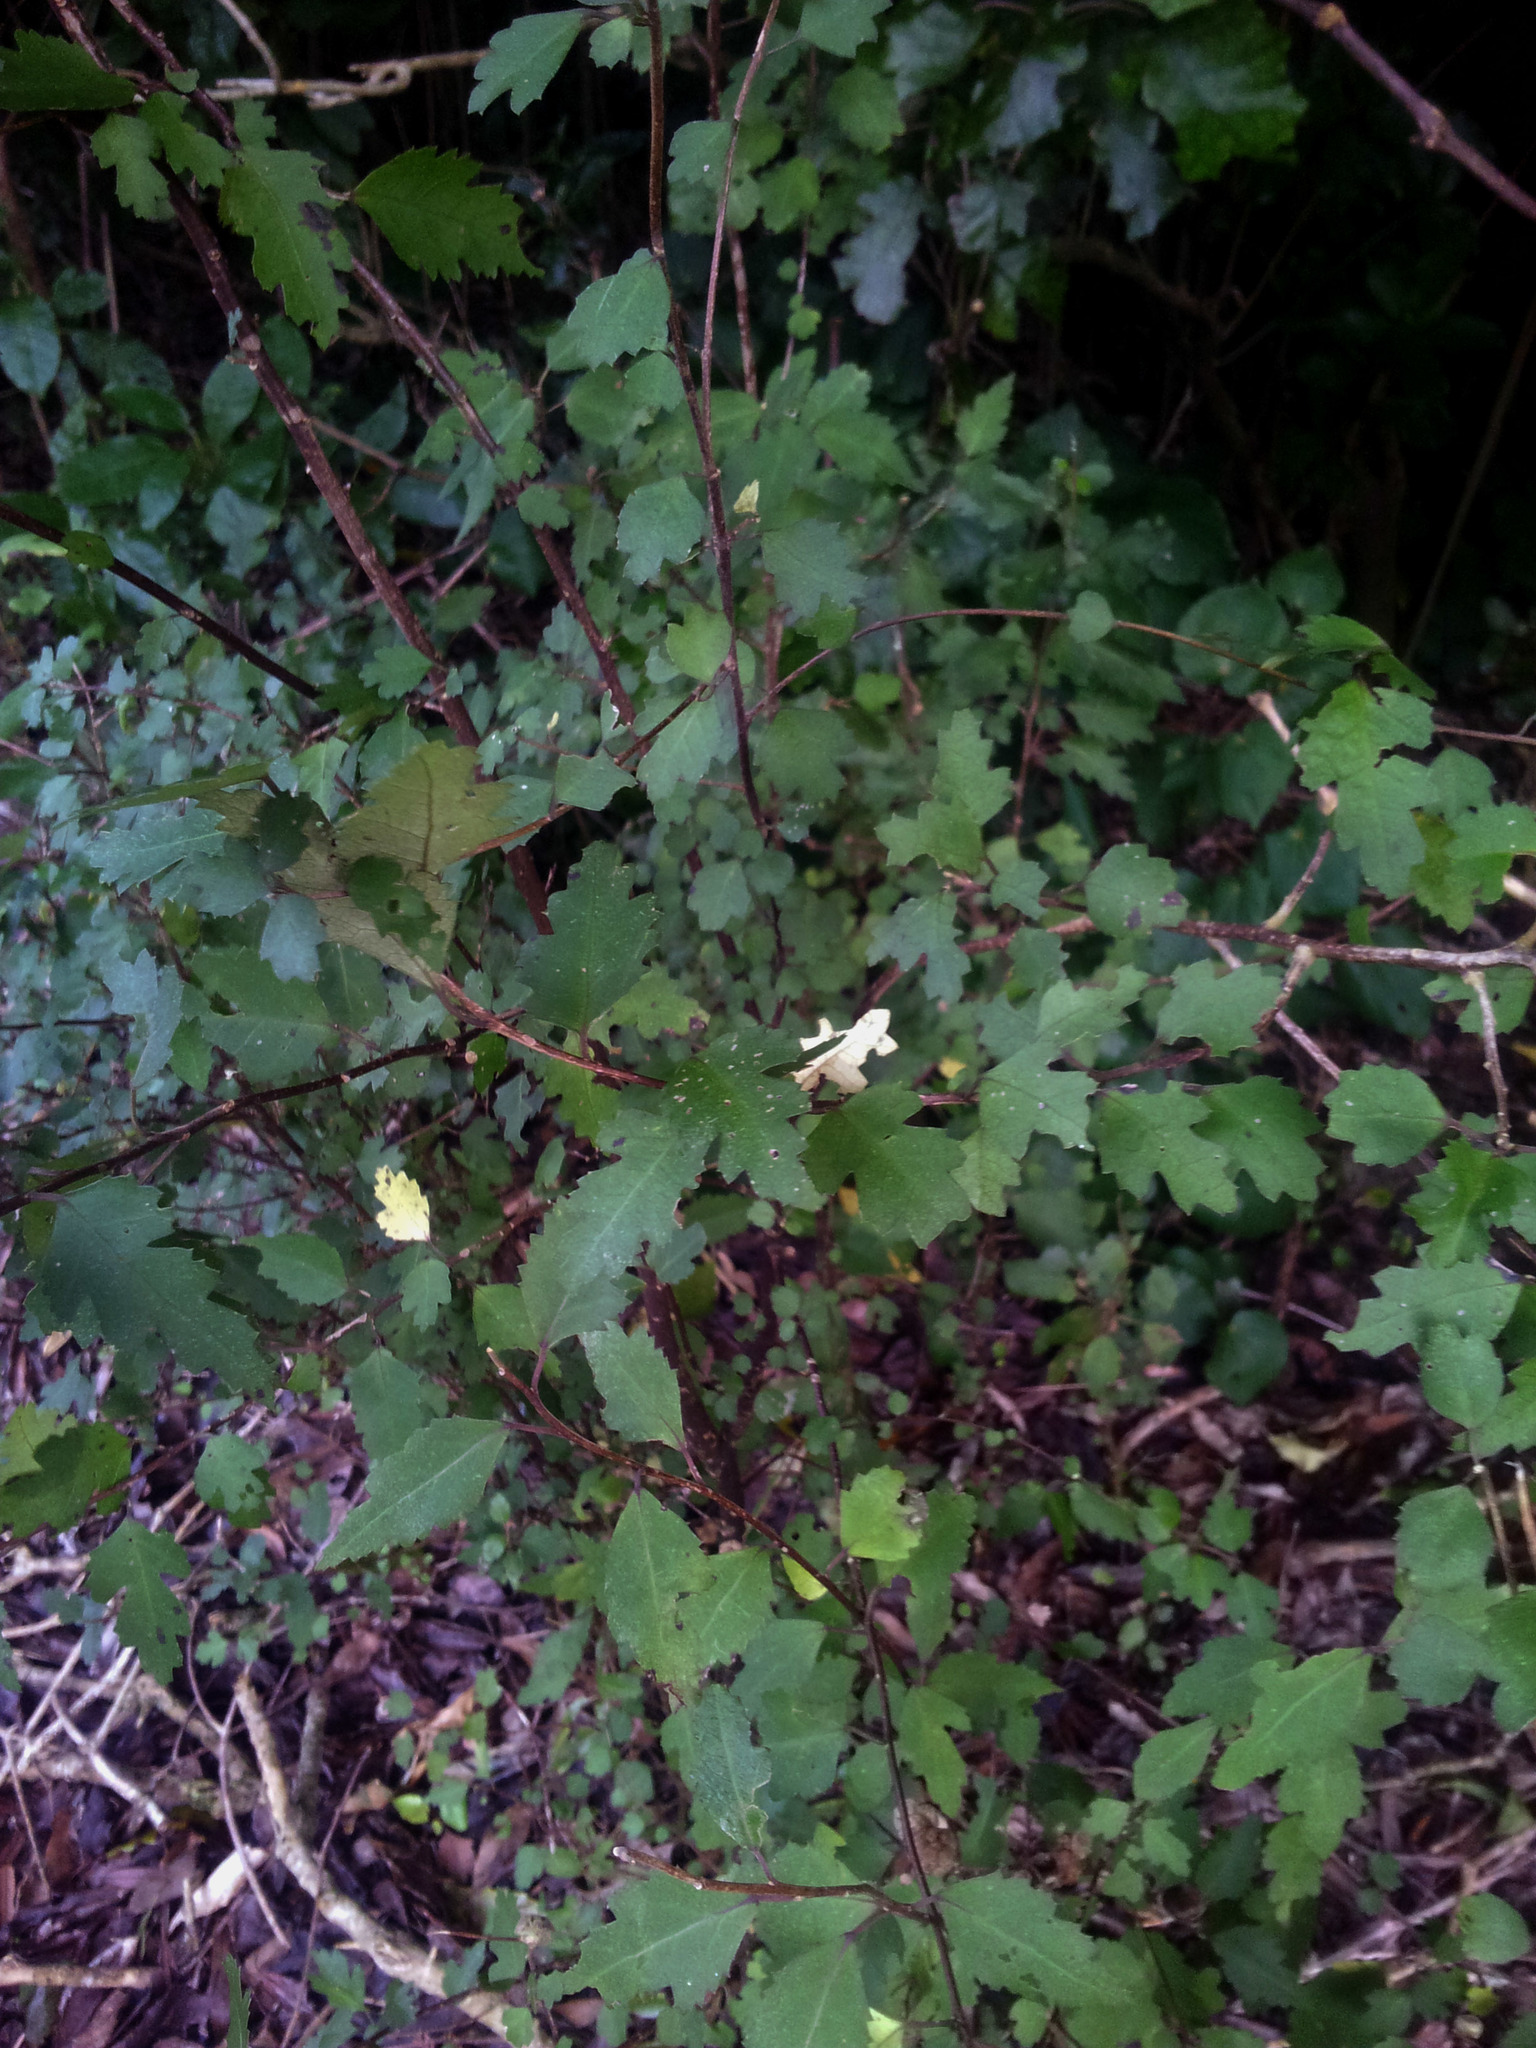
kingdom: Plantae
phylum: Tracheophyta
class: Magnoliopsida
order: Malvales
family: Malvaceae
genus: Hoheria
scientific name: Hoheria sexstylosa
